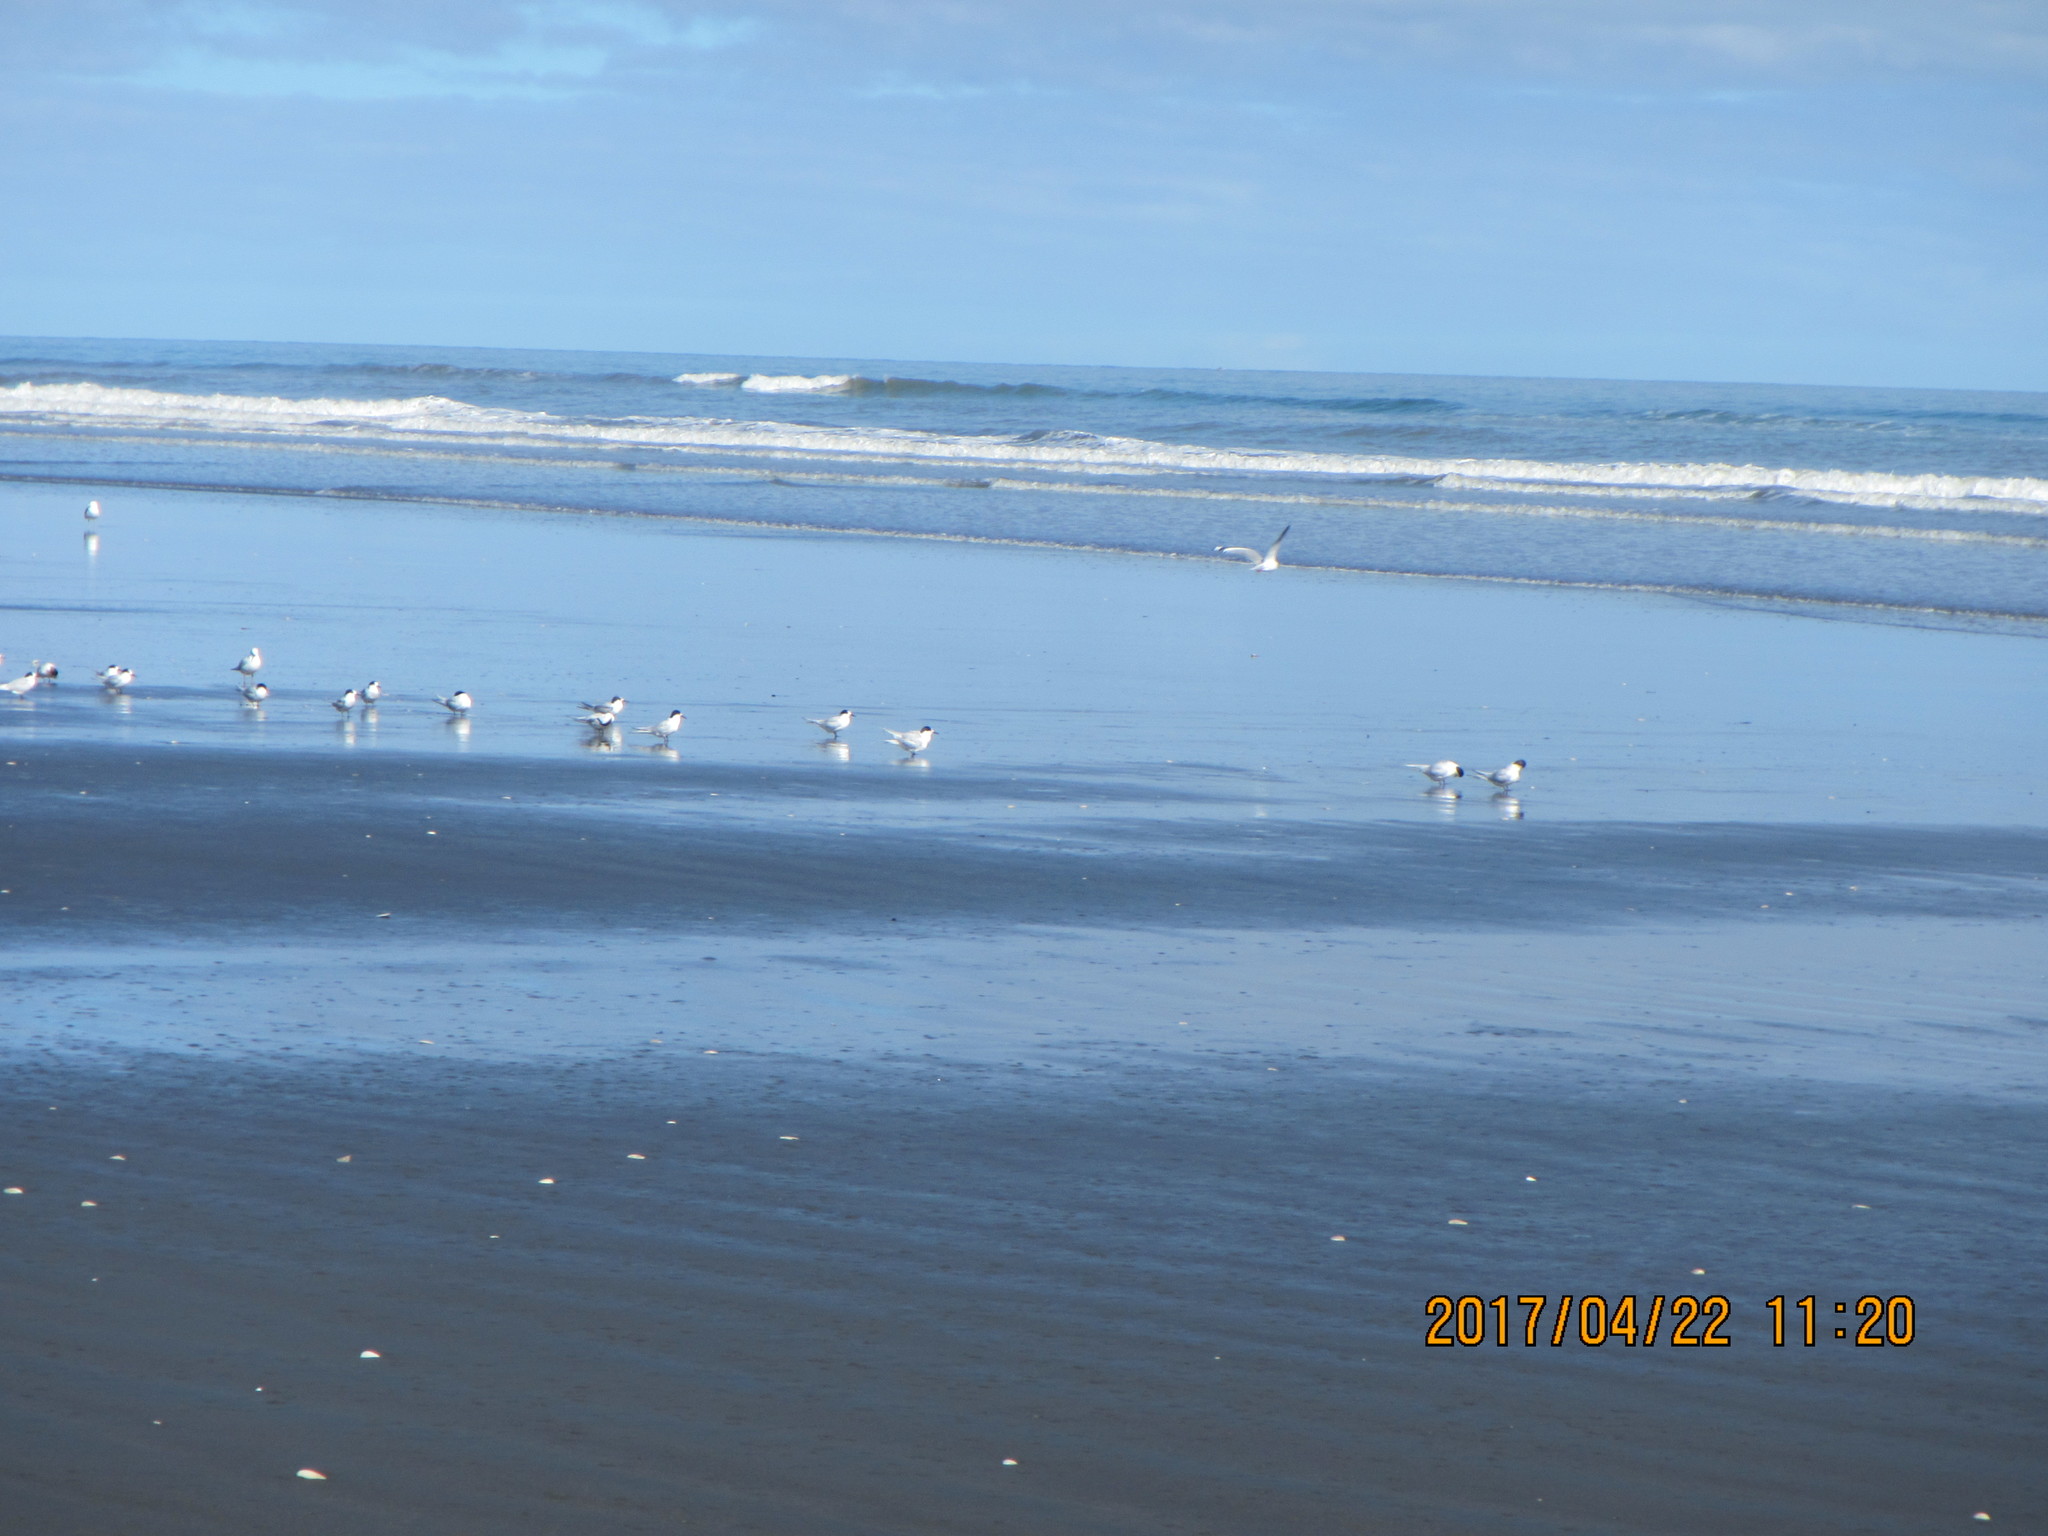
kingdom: Animalia
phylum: Chordata
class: Aves
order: Charadriiformes
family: Laridae
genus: Sterna
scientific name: Sterna striata
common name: White-fronted tern
